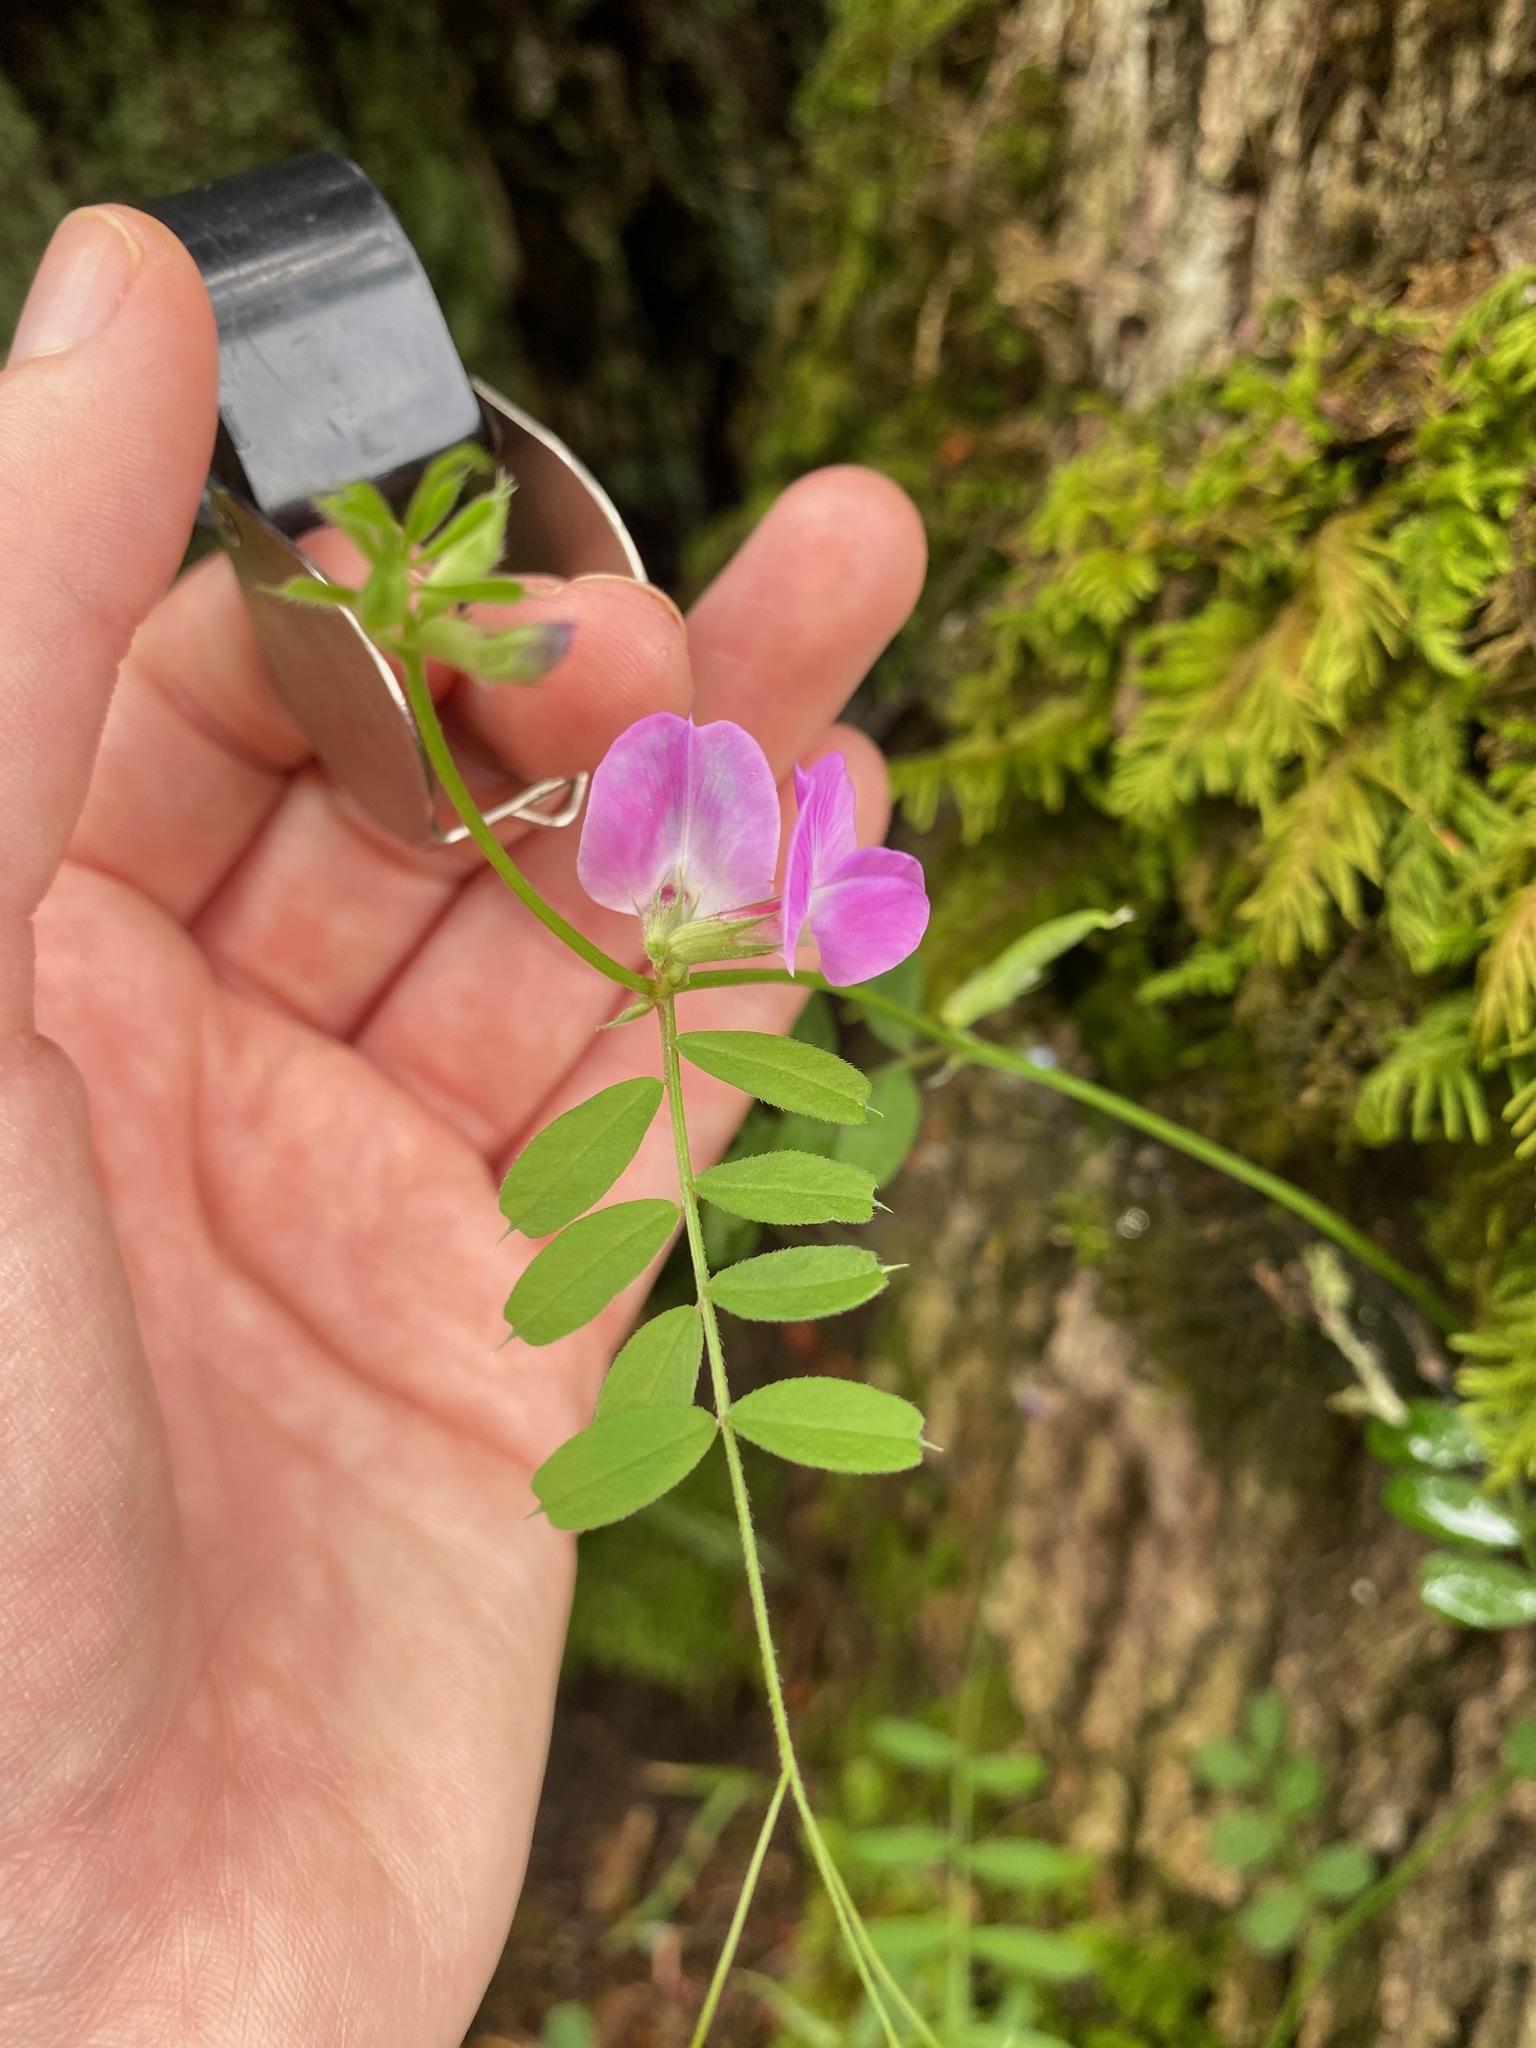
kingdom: Plantae
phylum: Tracheophyta
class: Magnoliopsida
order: Fabales
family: Fabaceae
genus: Vicia
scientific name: Vicia sativa
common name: Garden vetch
